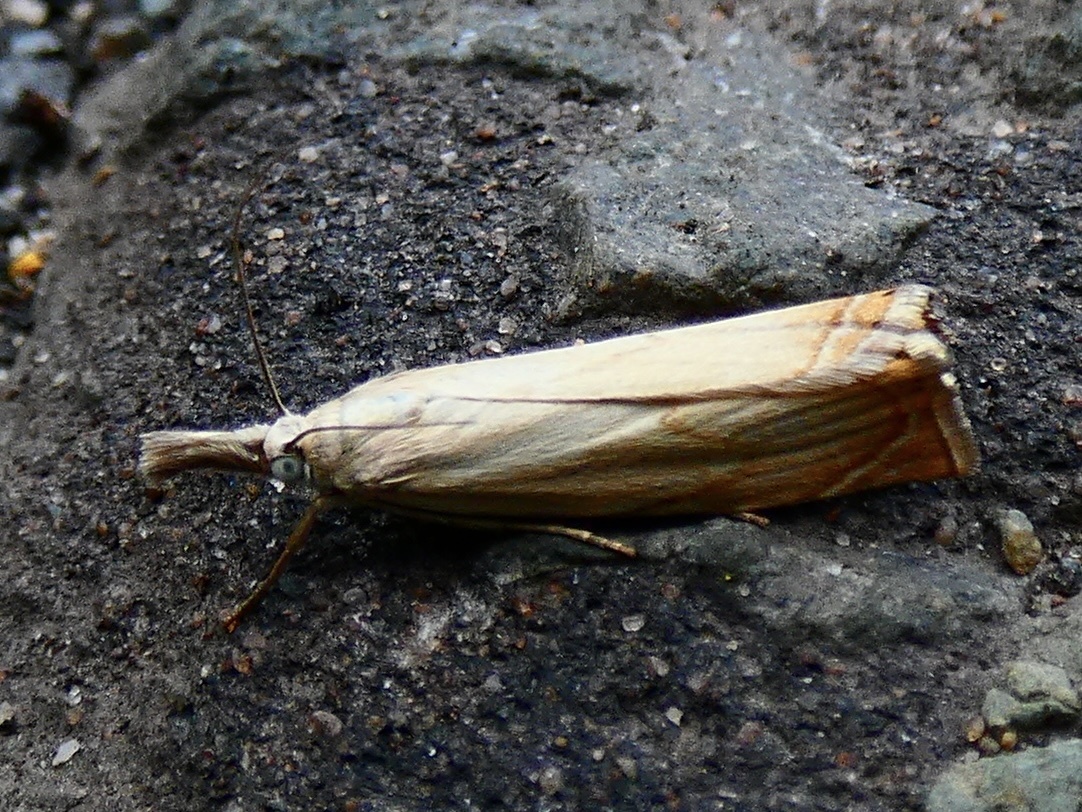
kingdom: Animalia
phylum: Arthropoda
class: Insecta
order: Lepidoptera
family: Crambidae
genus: Chrysoteuchia
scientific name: Chrysoteuchia culmella
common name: Garden grass-veneer
